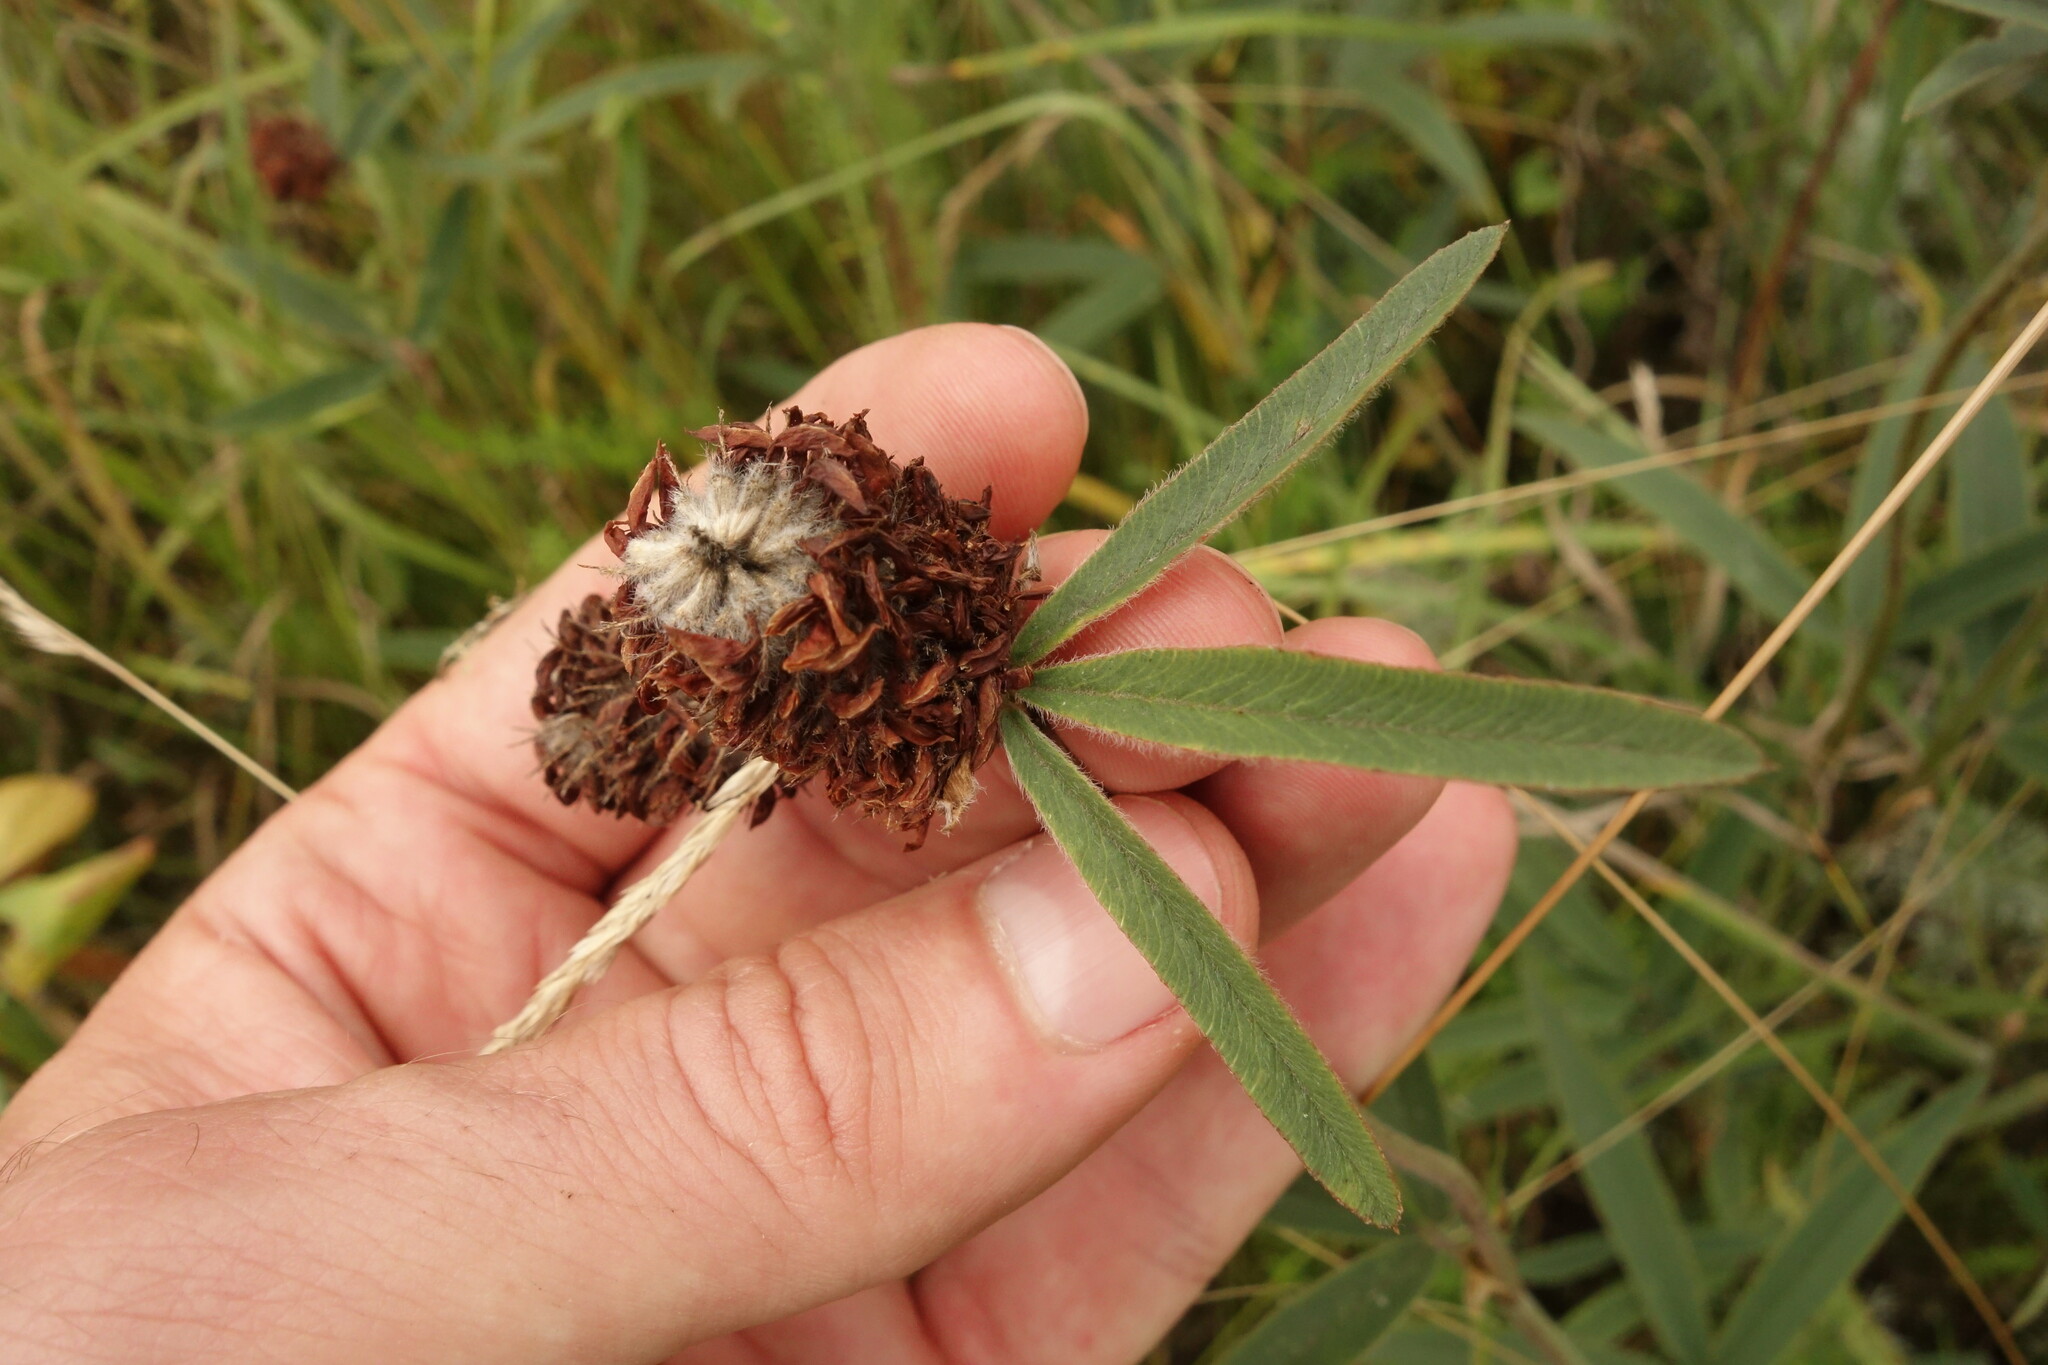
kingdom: Plantae
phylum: Tracheophyta
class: Magnoliopsida
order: Fabales
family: Fabaceae
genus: Trifolium
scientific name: Trifolium alpestre
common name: Owl-head clover
